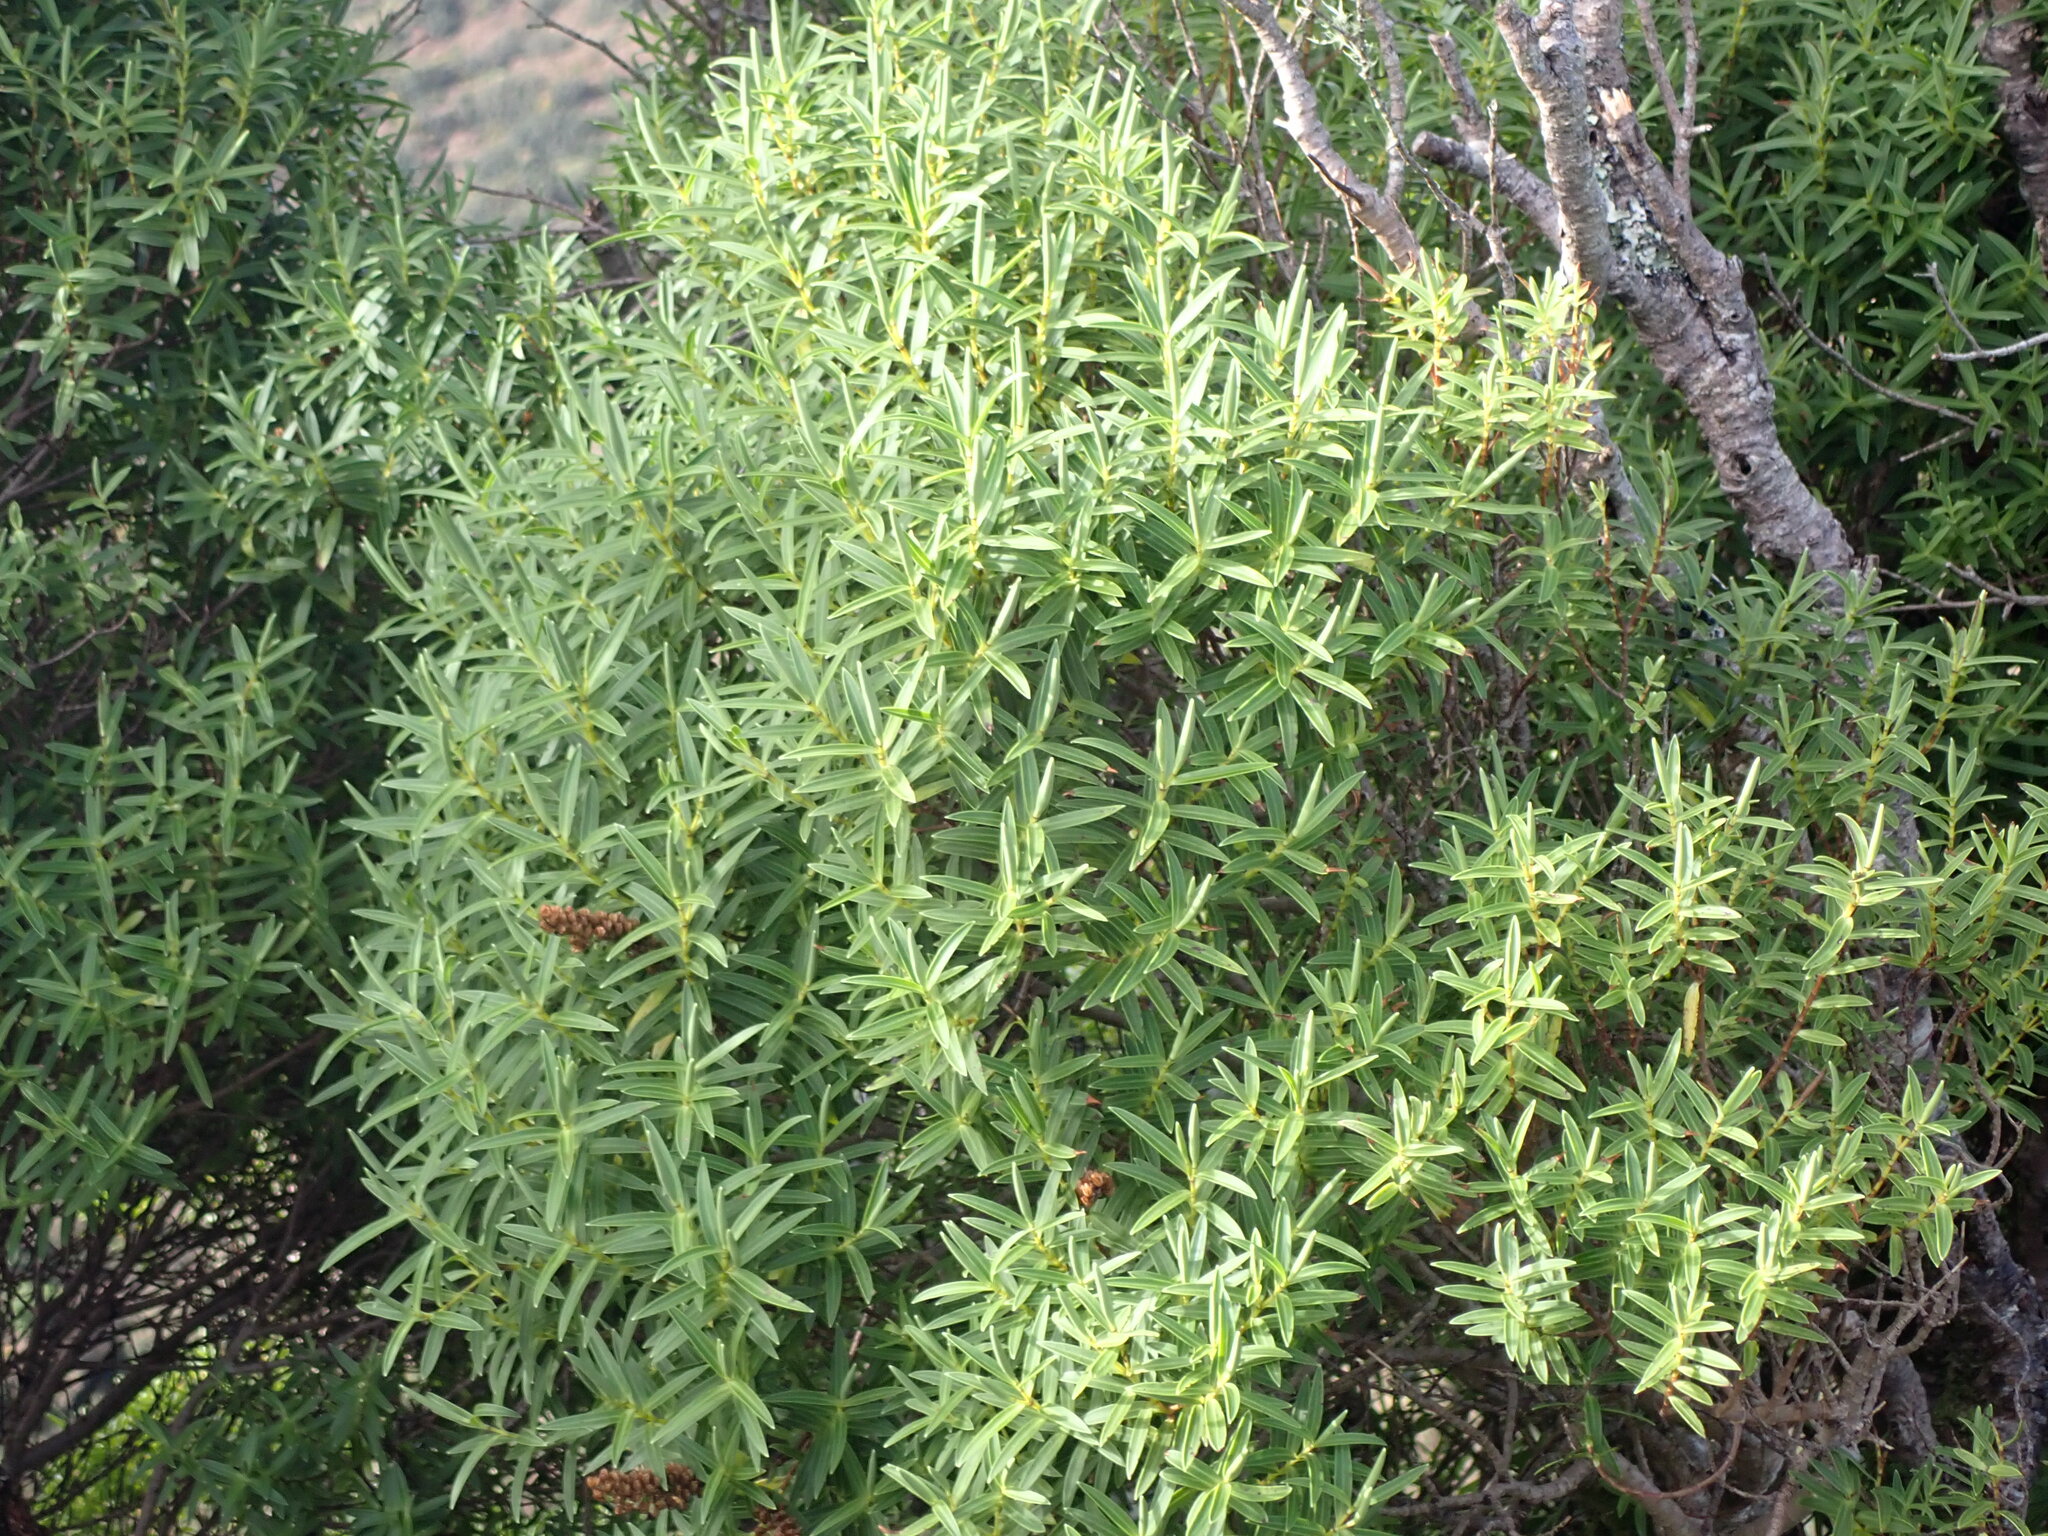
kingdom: Plantae
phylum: Tracheophyta
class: Magnoliopsida
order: Lamiales
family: Plantaginaceae
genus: Veronica
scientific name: Veronica parviflora
